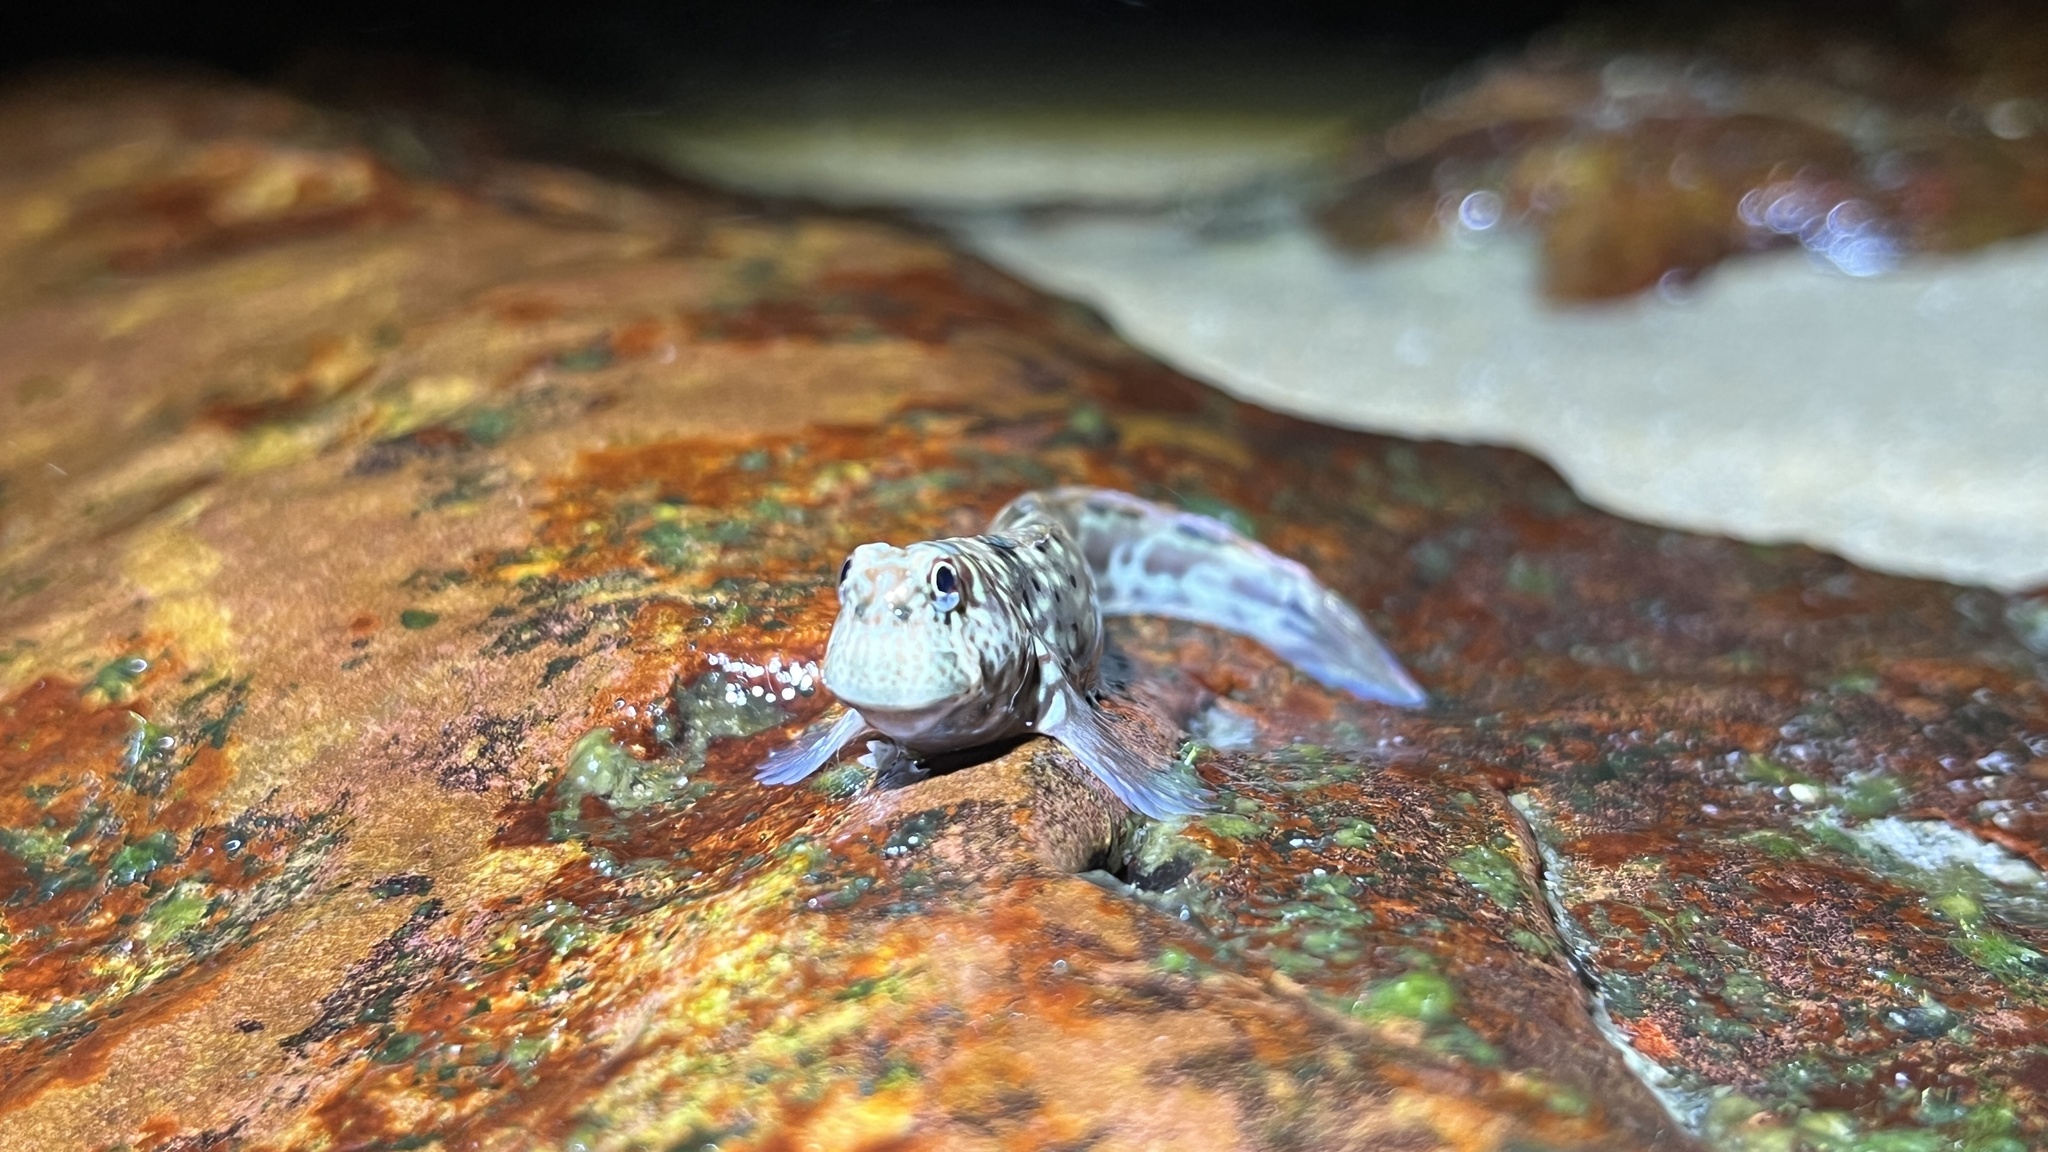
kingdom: Animalia
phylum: Chordata
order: Perciformes
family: Blenniidae
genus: Istiblennius
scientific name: Istiblennius dussumieri
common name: Dussumier's rockskipper
